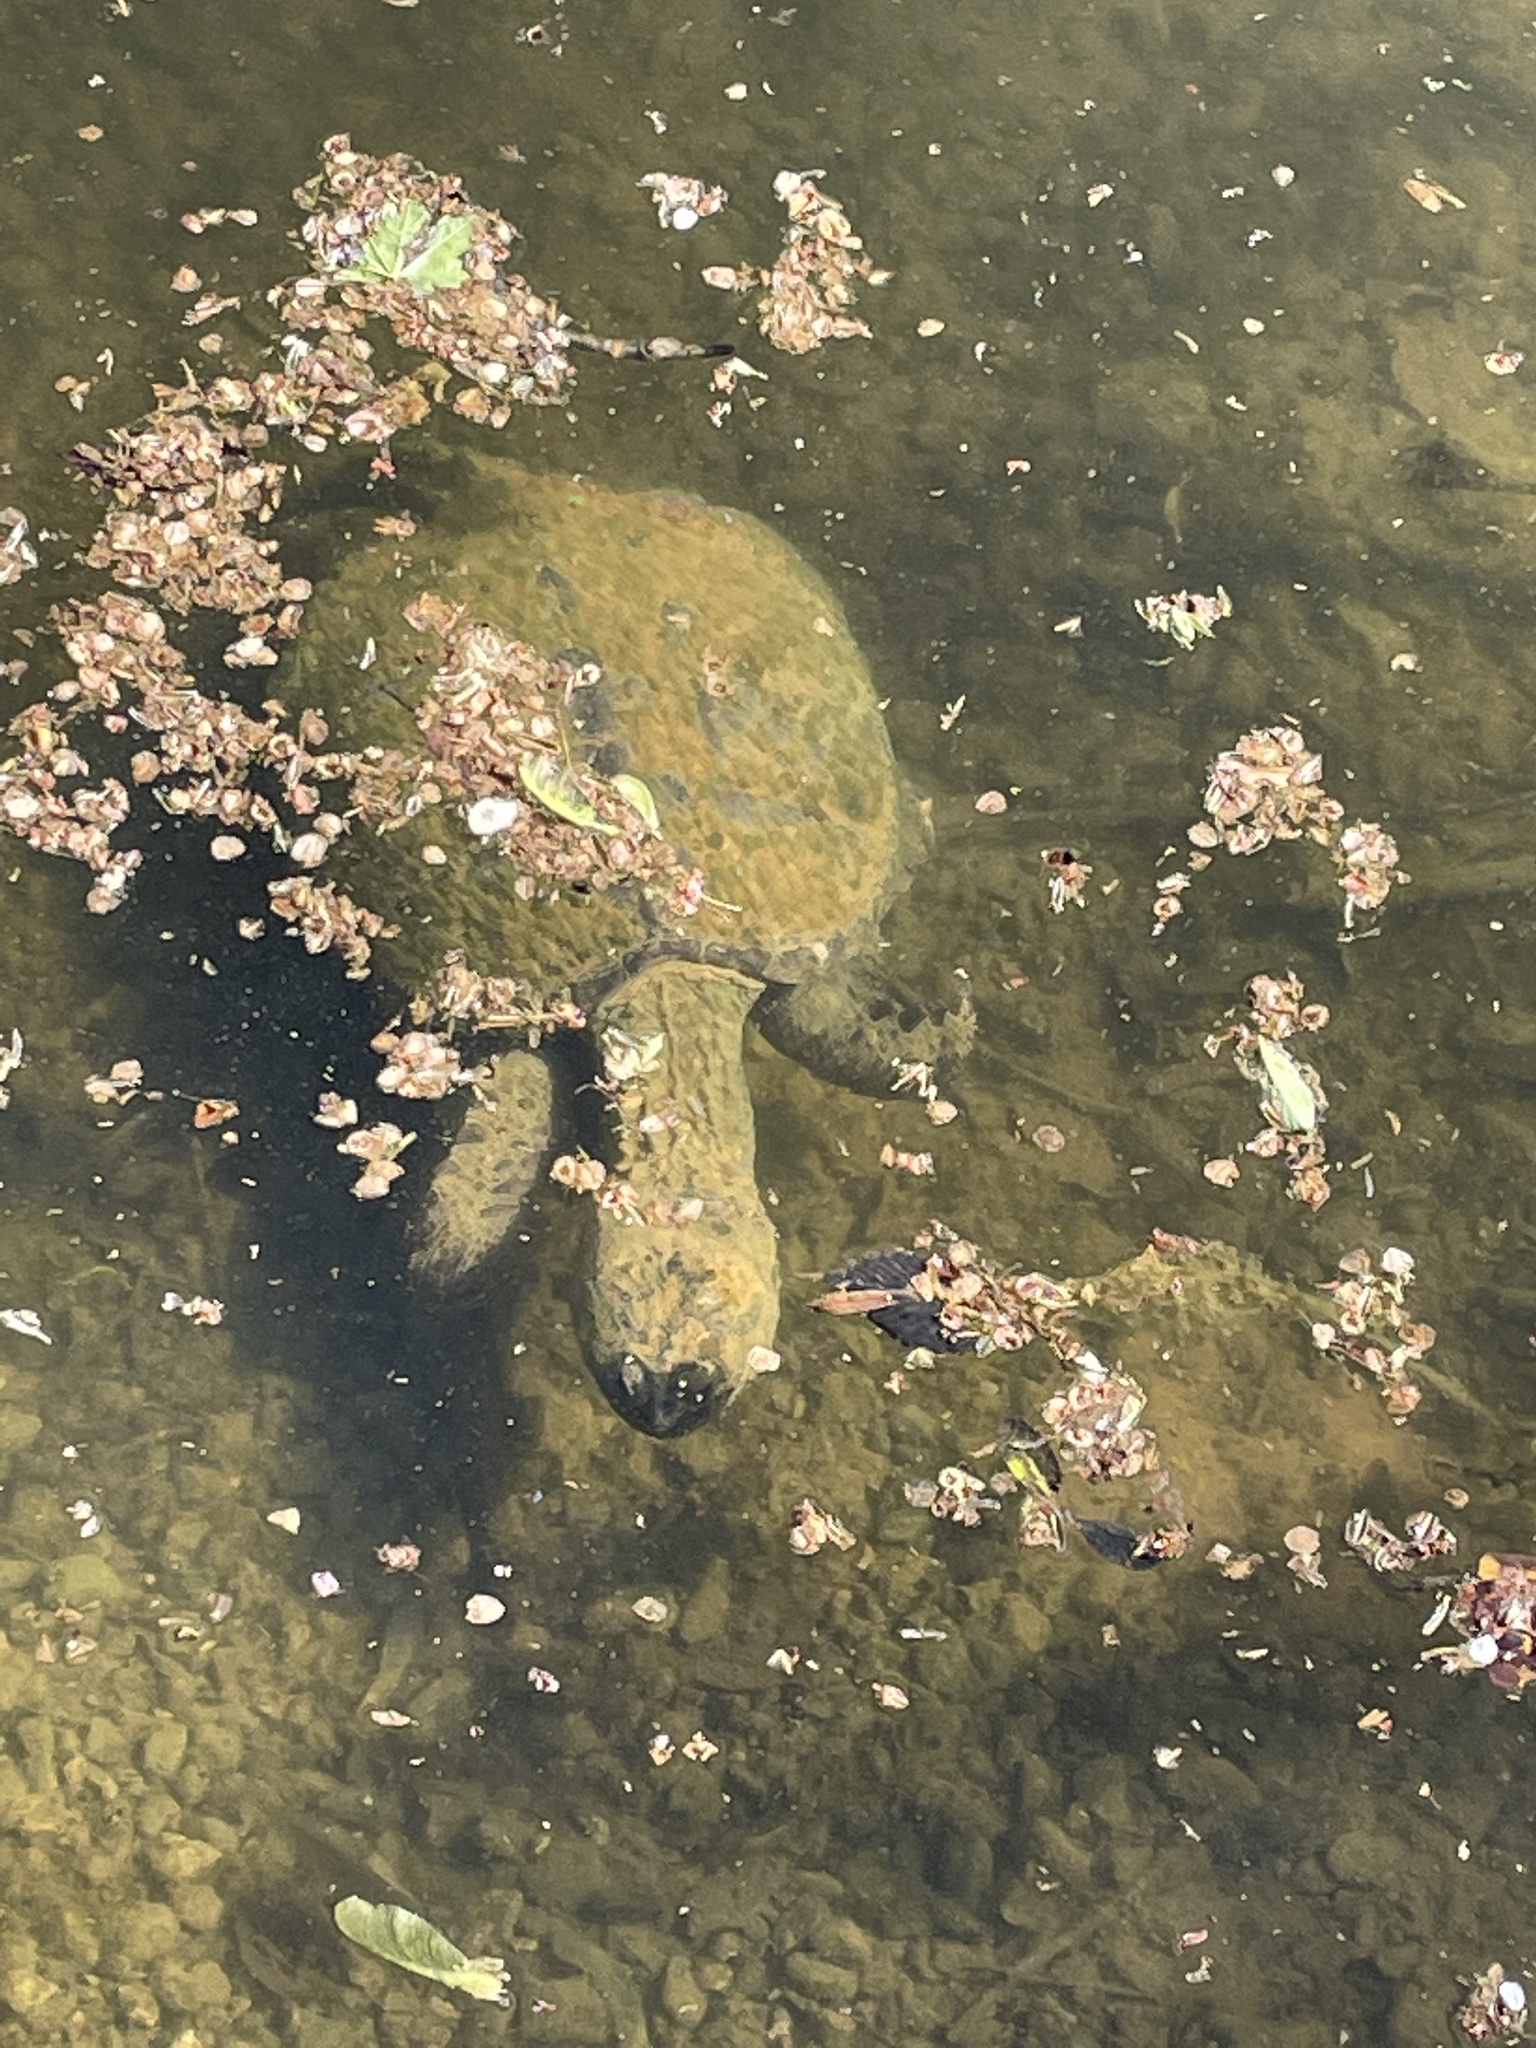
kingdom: Animalia
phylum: Chordata
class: Testudines
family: Chelydridae
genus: Chelydra
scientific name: Chelydra serpentina
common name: Common snapping turtle
